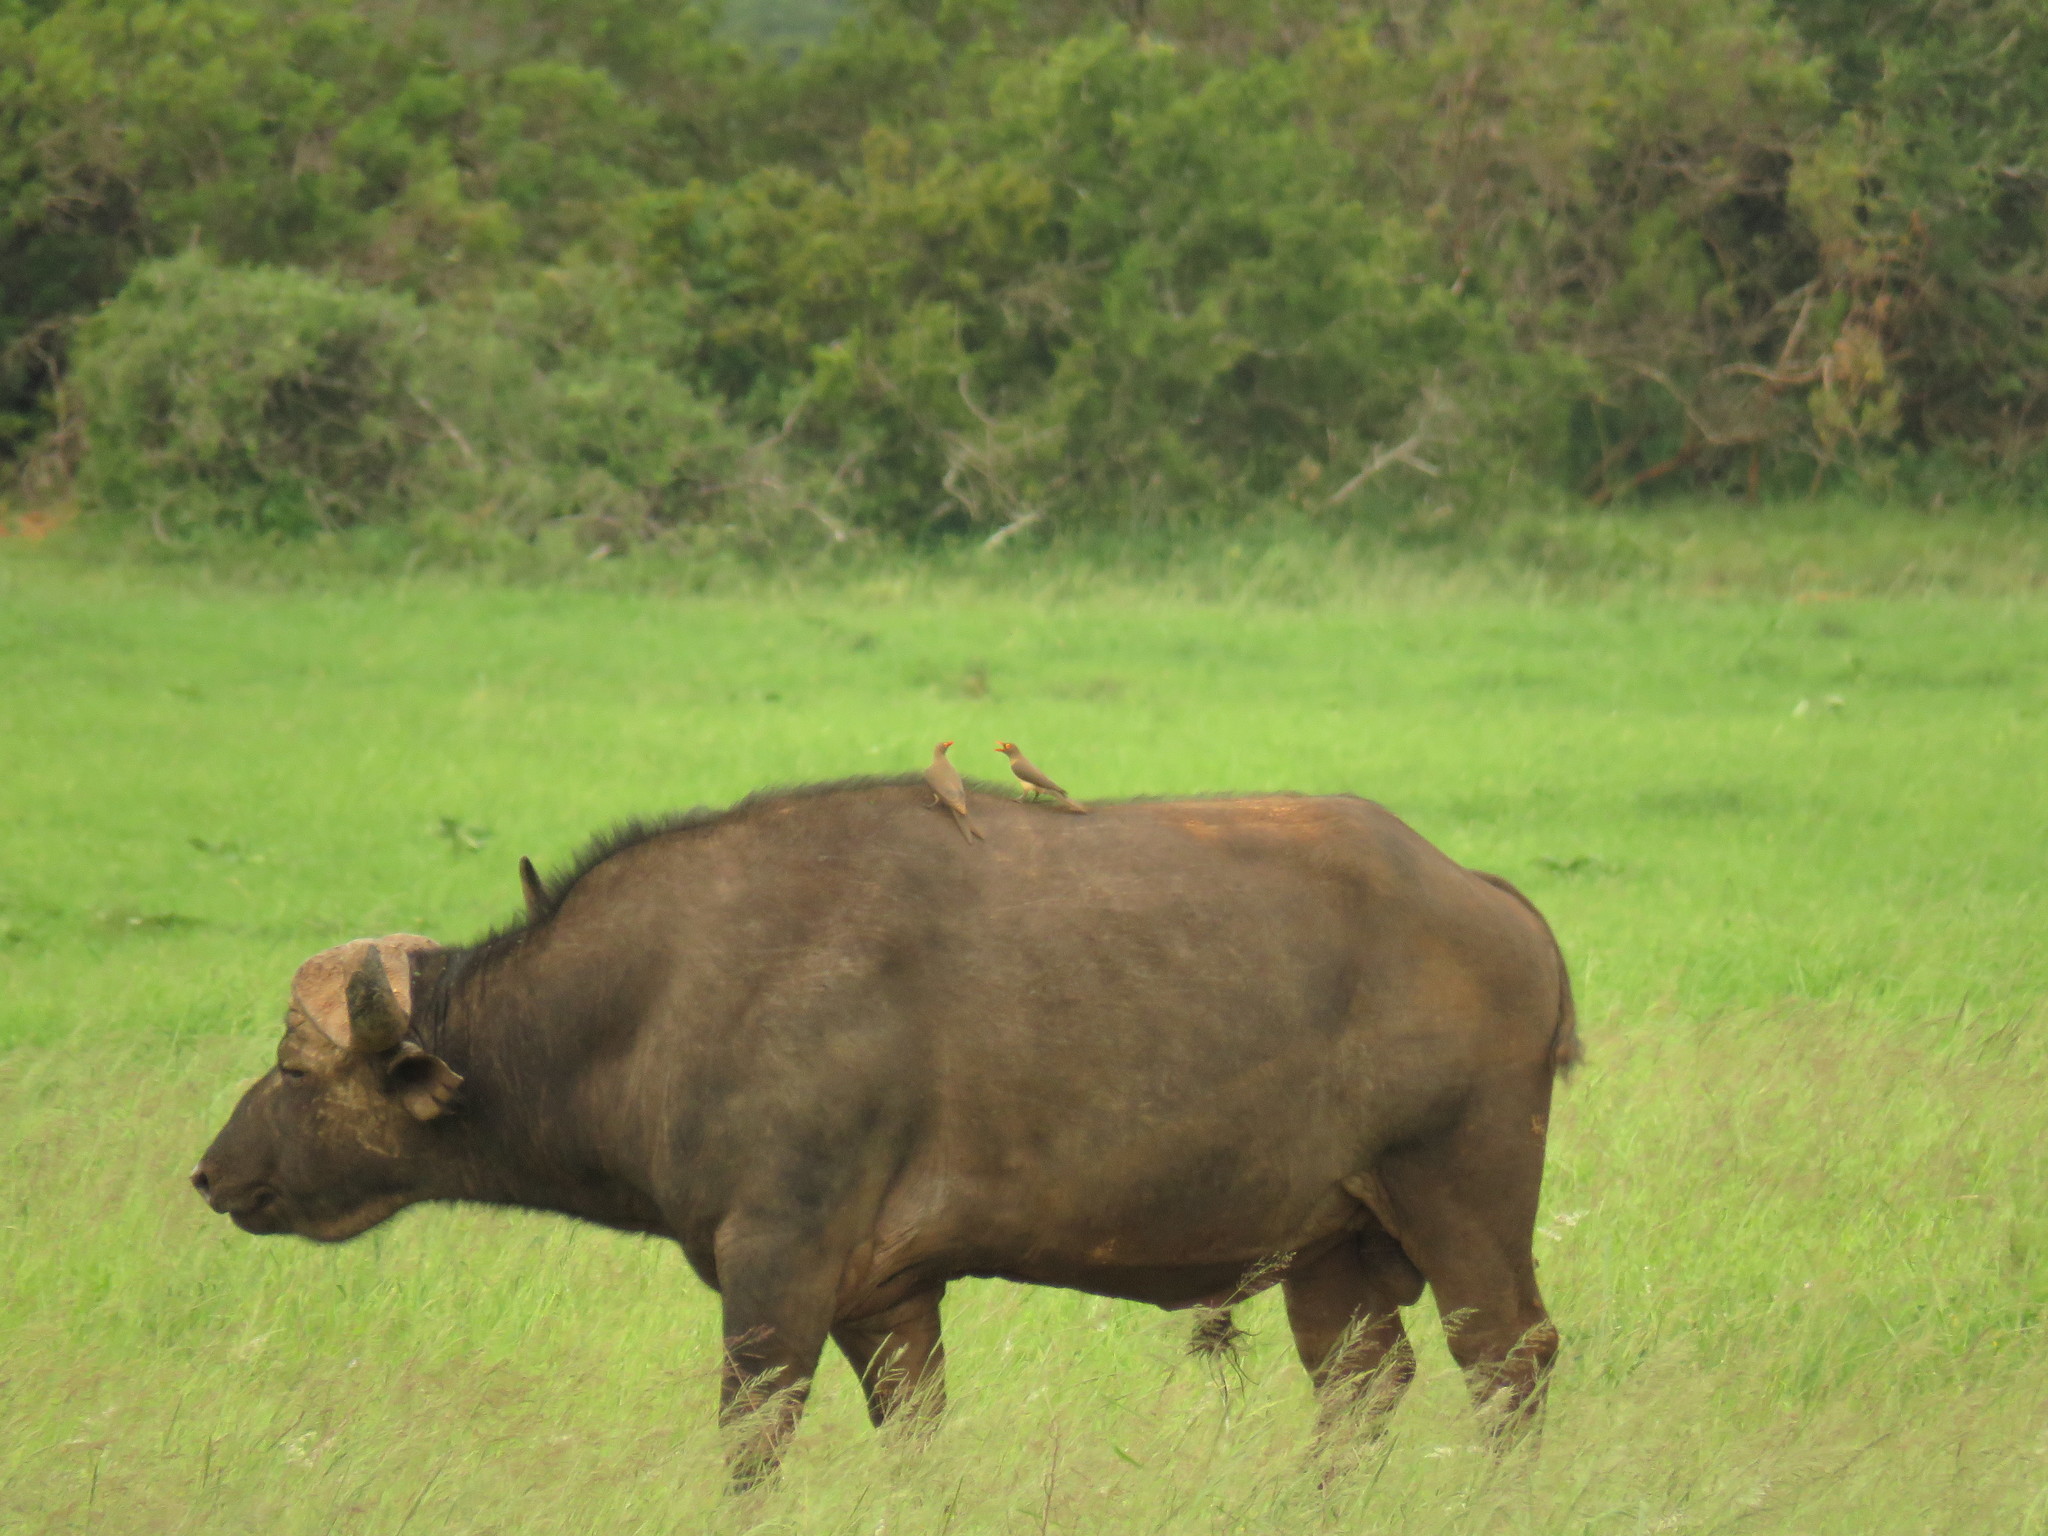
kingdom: Animalia
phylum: Chordata
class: Mammalia
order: Artiodactyla
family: Bovidae
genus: Syncerus
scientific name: Syncerus caffer
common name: African buffalo
